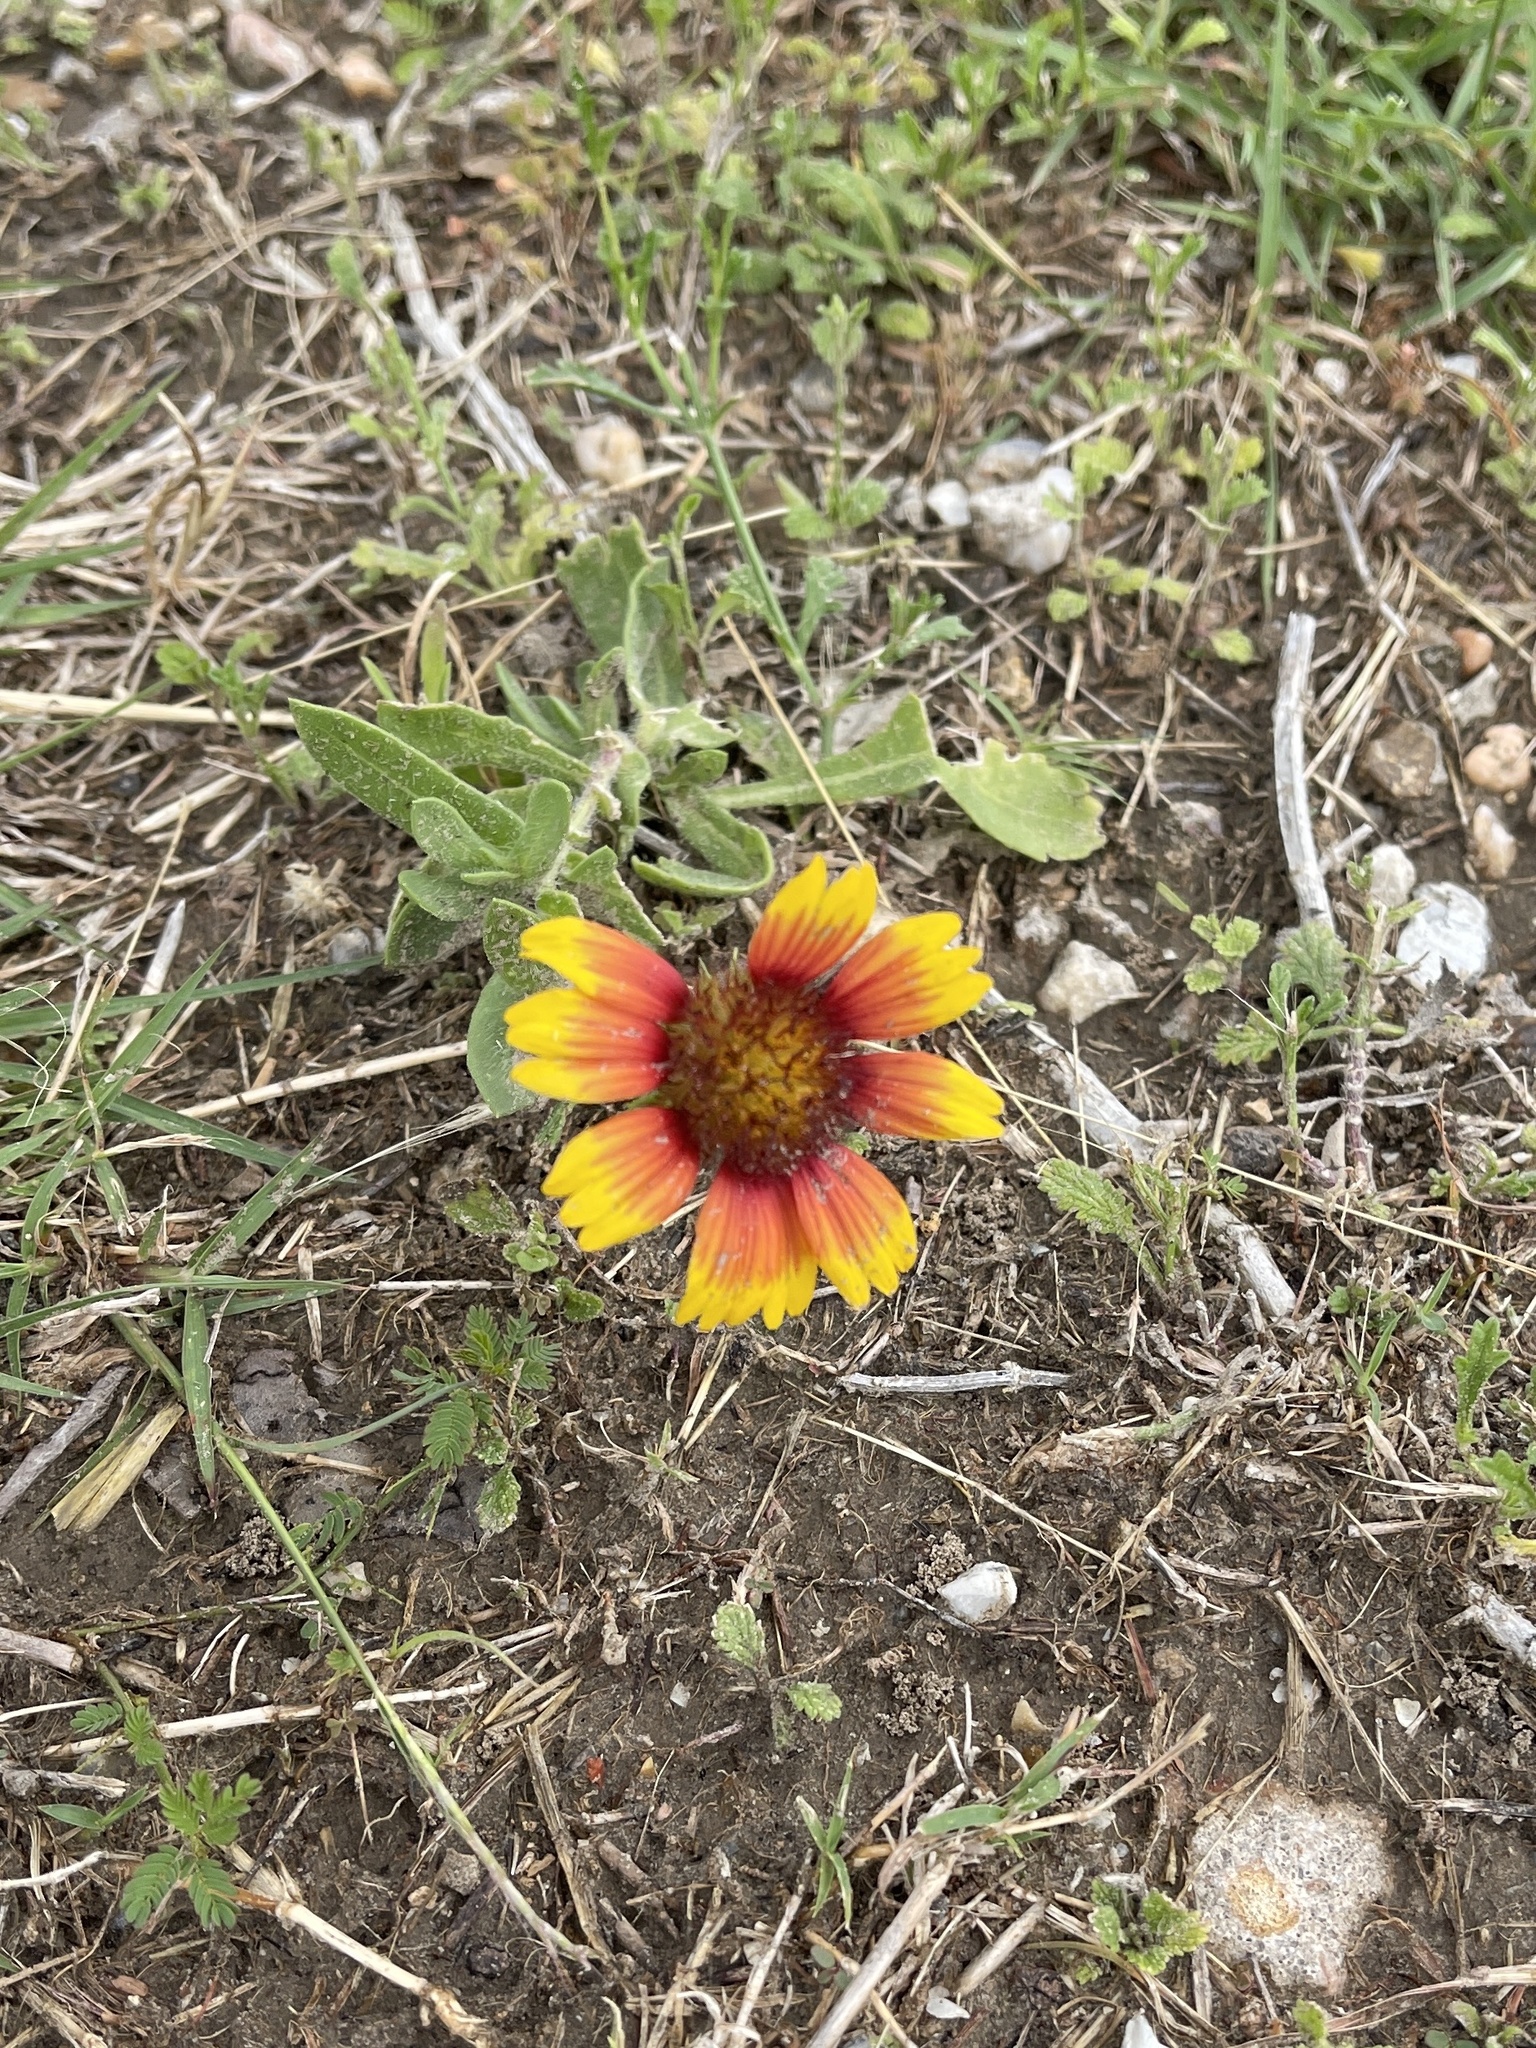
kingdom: Plantae
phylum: Tracheophyta
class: Magnoliopsida
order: Asterales
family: Asteraceae
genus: Gaillardia
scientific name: Gaillardia pulchella
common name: Firewheel
